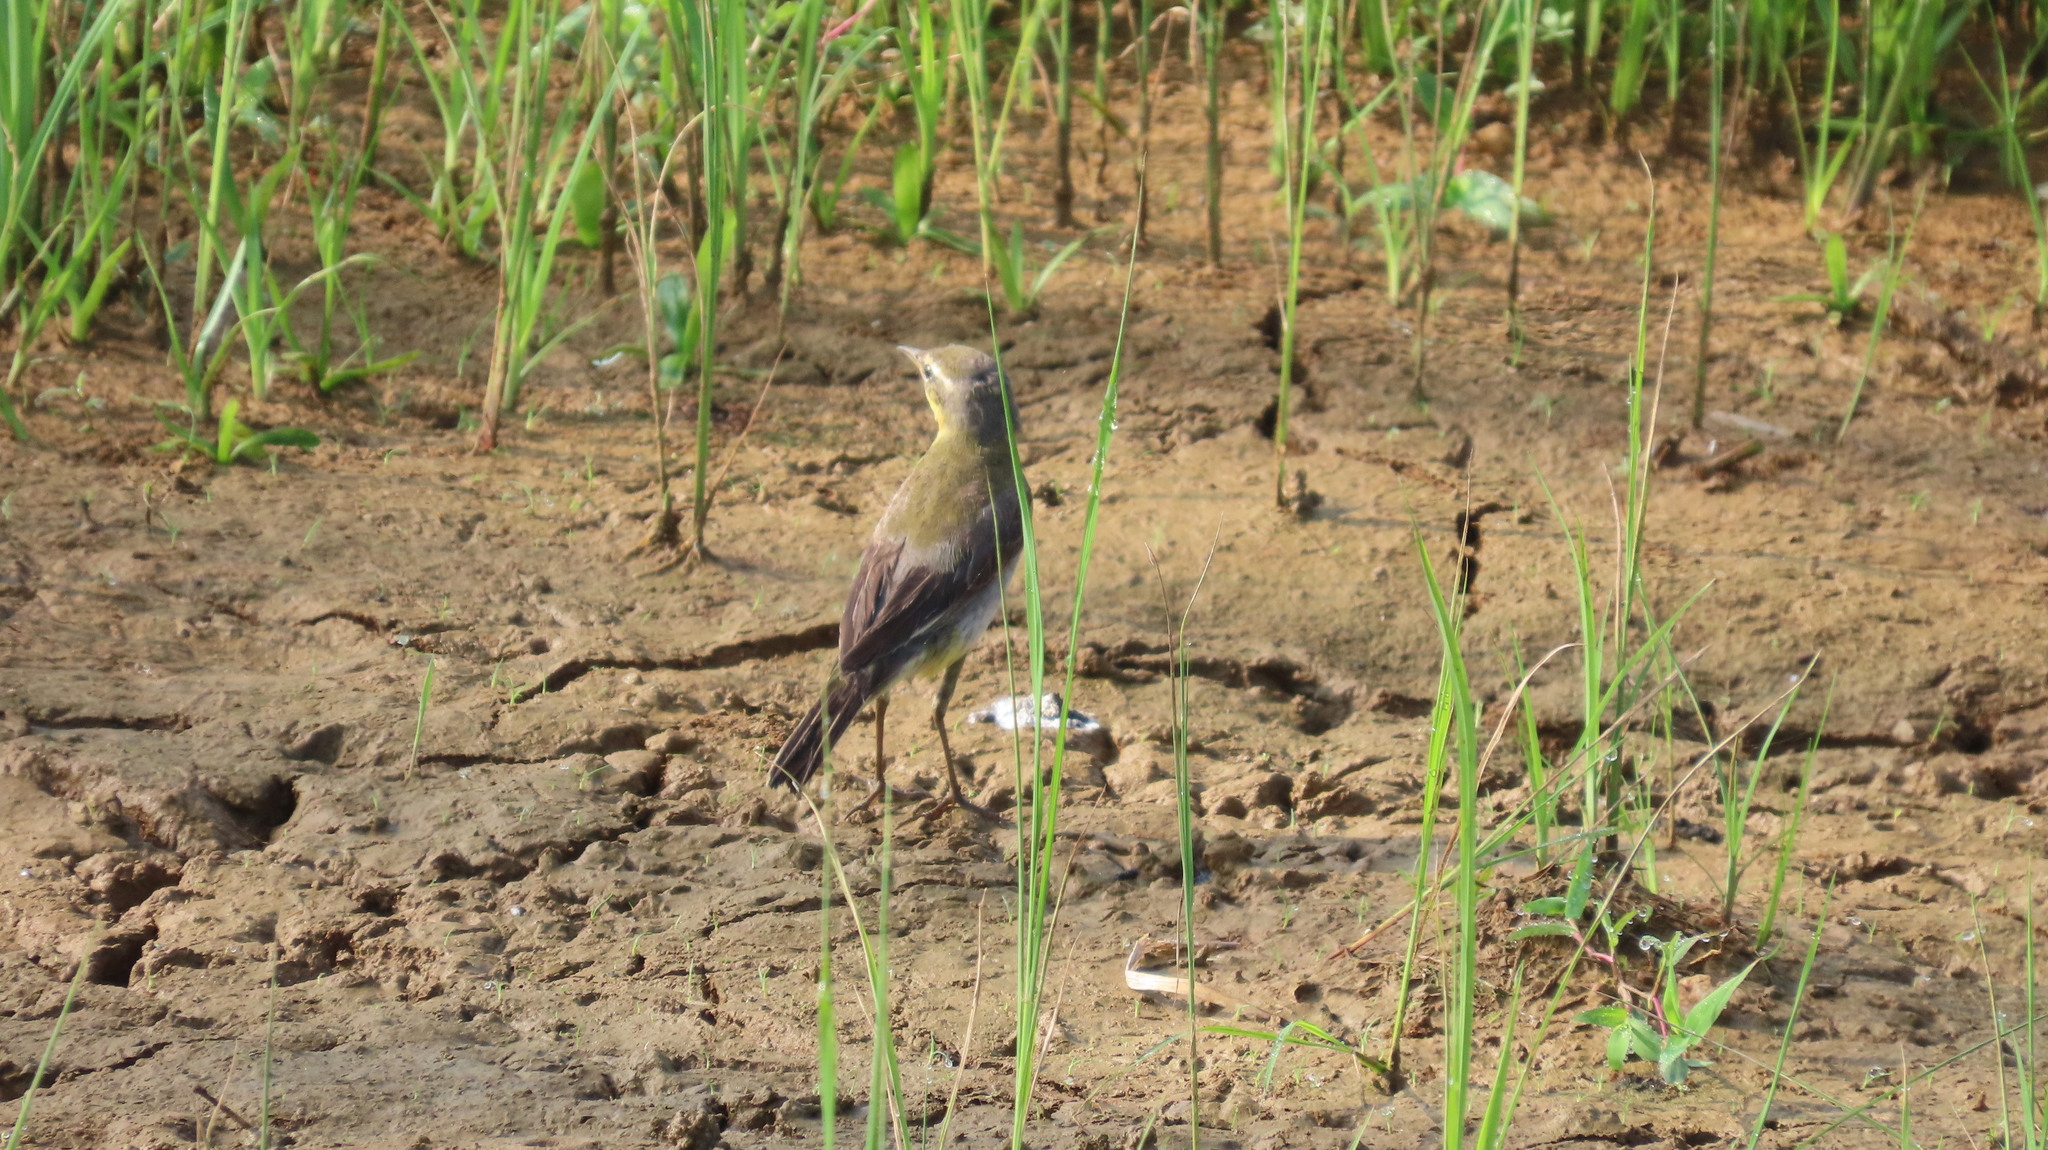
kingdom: Animalia
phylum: Chordata
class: Aves
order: Passeriformes
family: Motacillidae
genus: Motacilla
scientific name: Motacilla flava
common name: Western yellow wagtail
